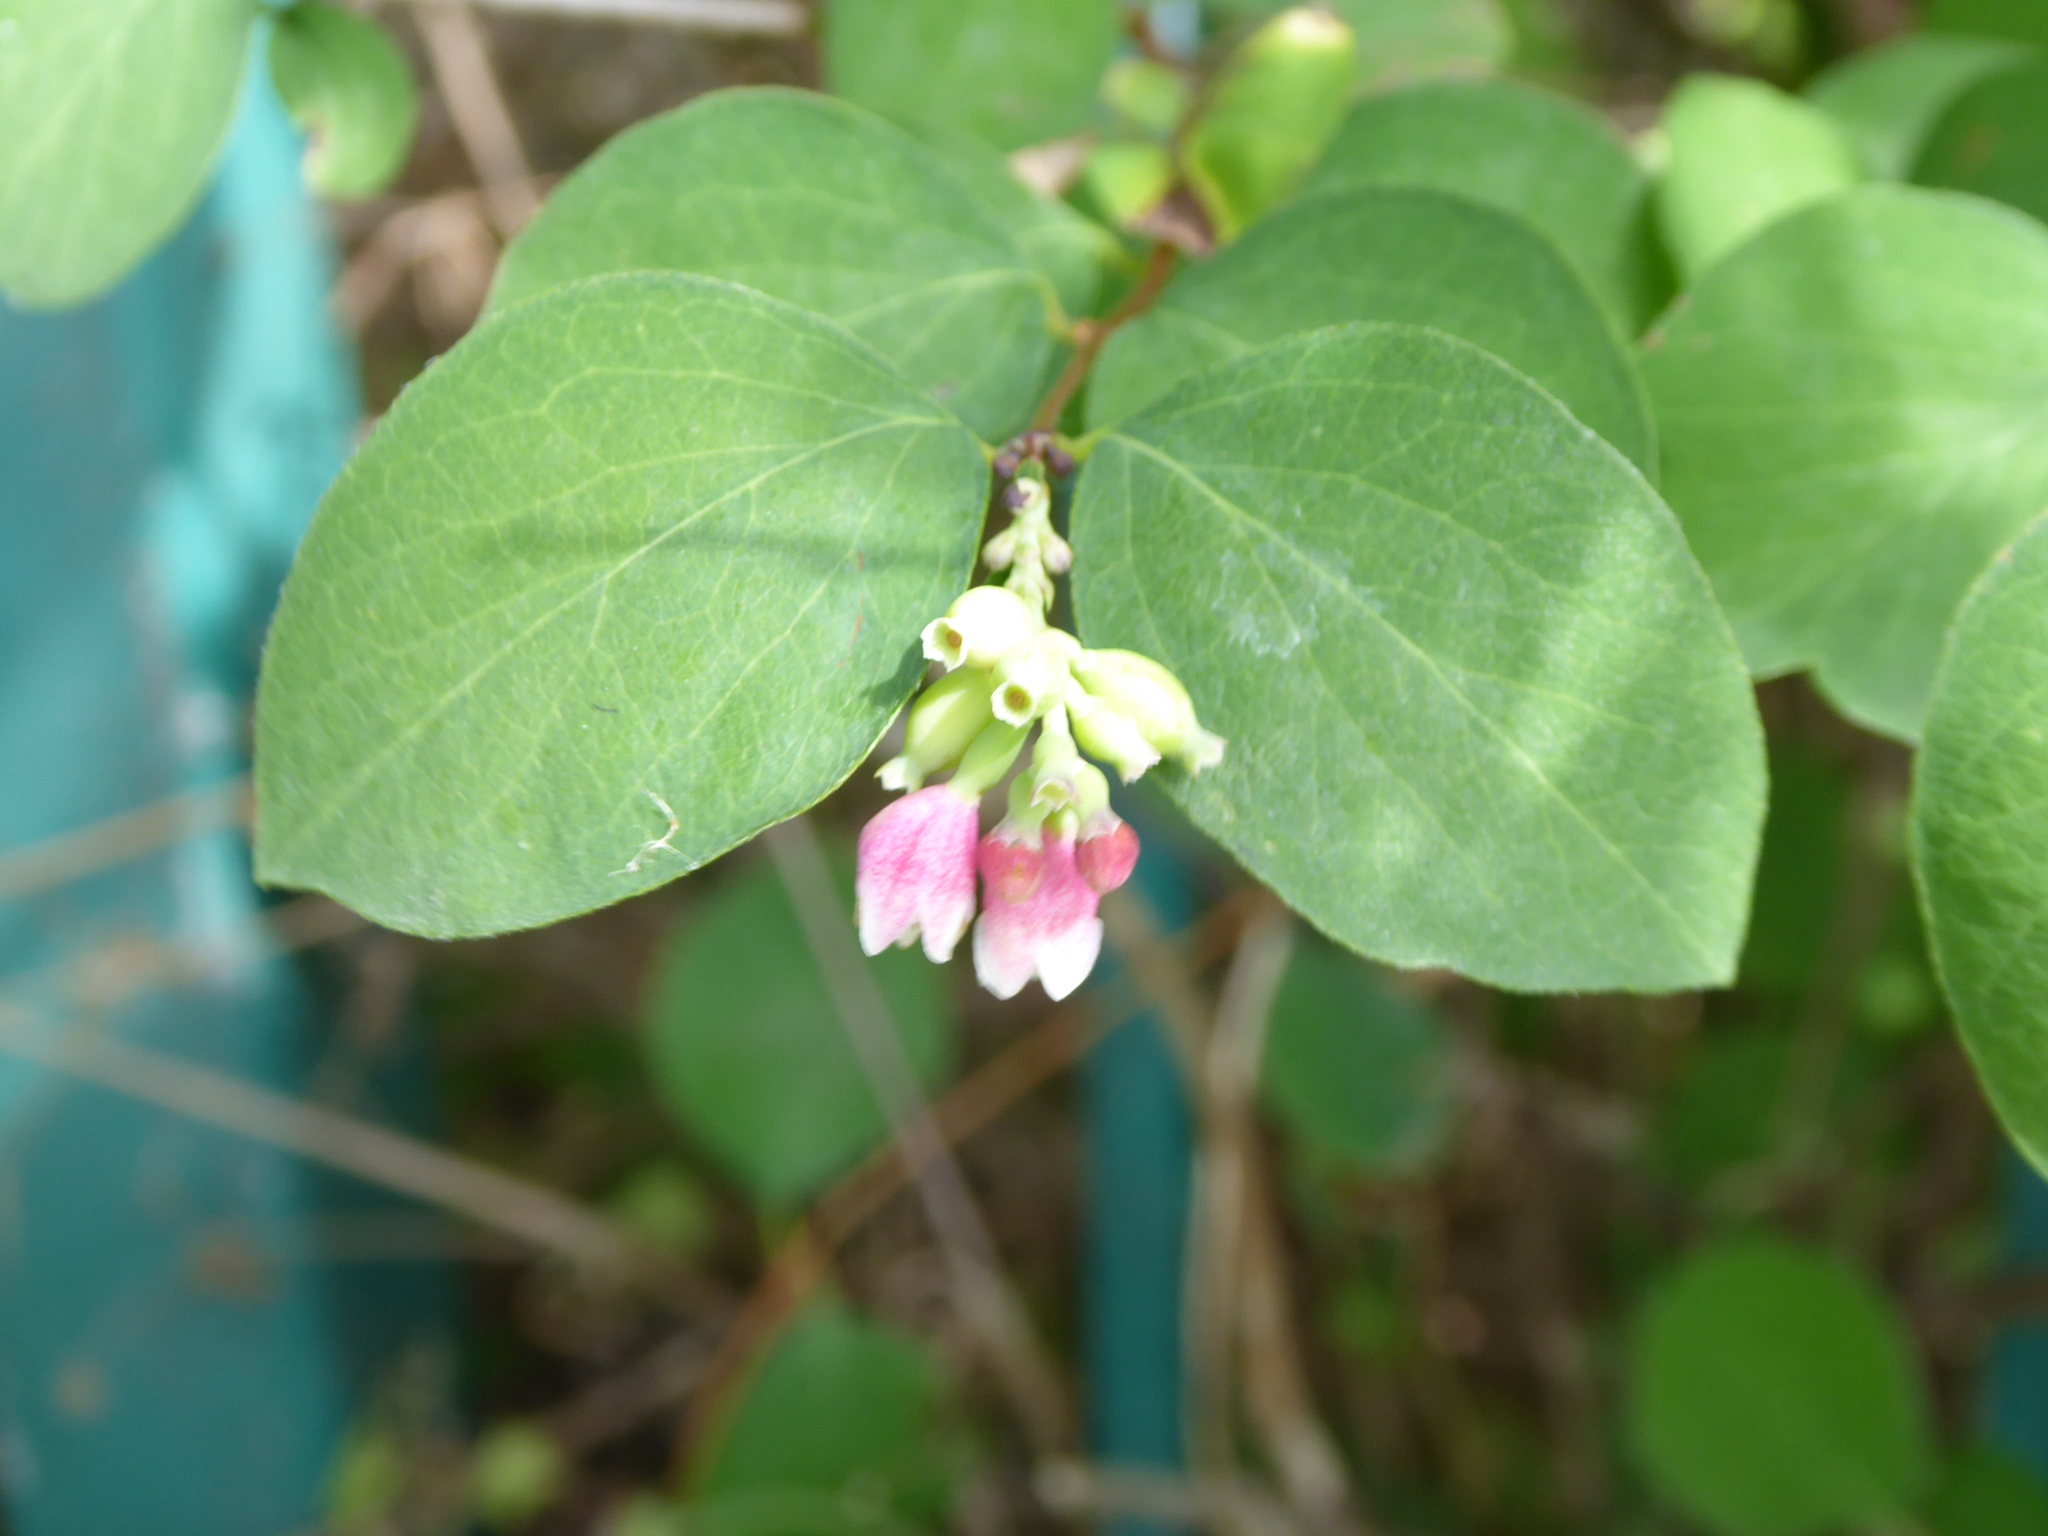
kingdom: Plantae
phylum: Tracheophyta
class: Magnoliopsida
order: Dipsacales
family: Caprifoliaceae
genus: Symphoricarpos
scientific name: Symphoricarpos albus
